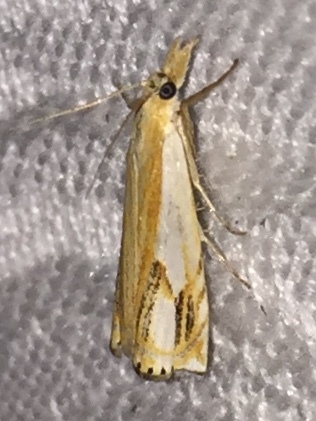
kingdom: Animalia
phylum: Arthropoda
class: Insecta
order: Lepidoptera
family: Crambidae
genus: Crambus
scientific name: Crambus agitatellus
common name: Double-banded grass-veneer
